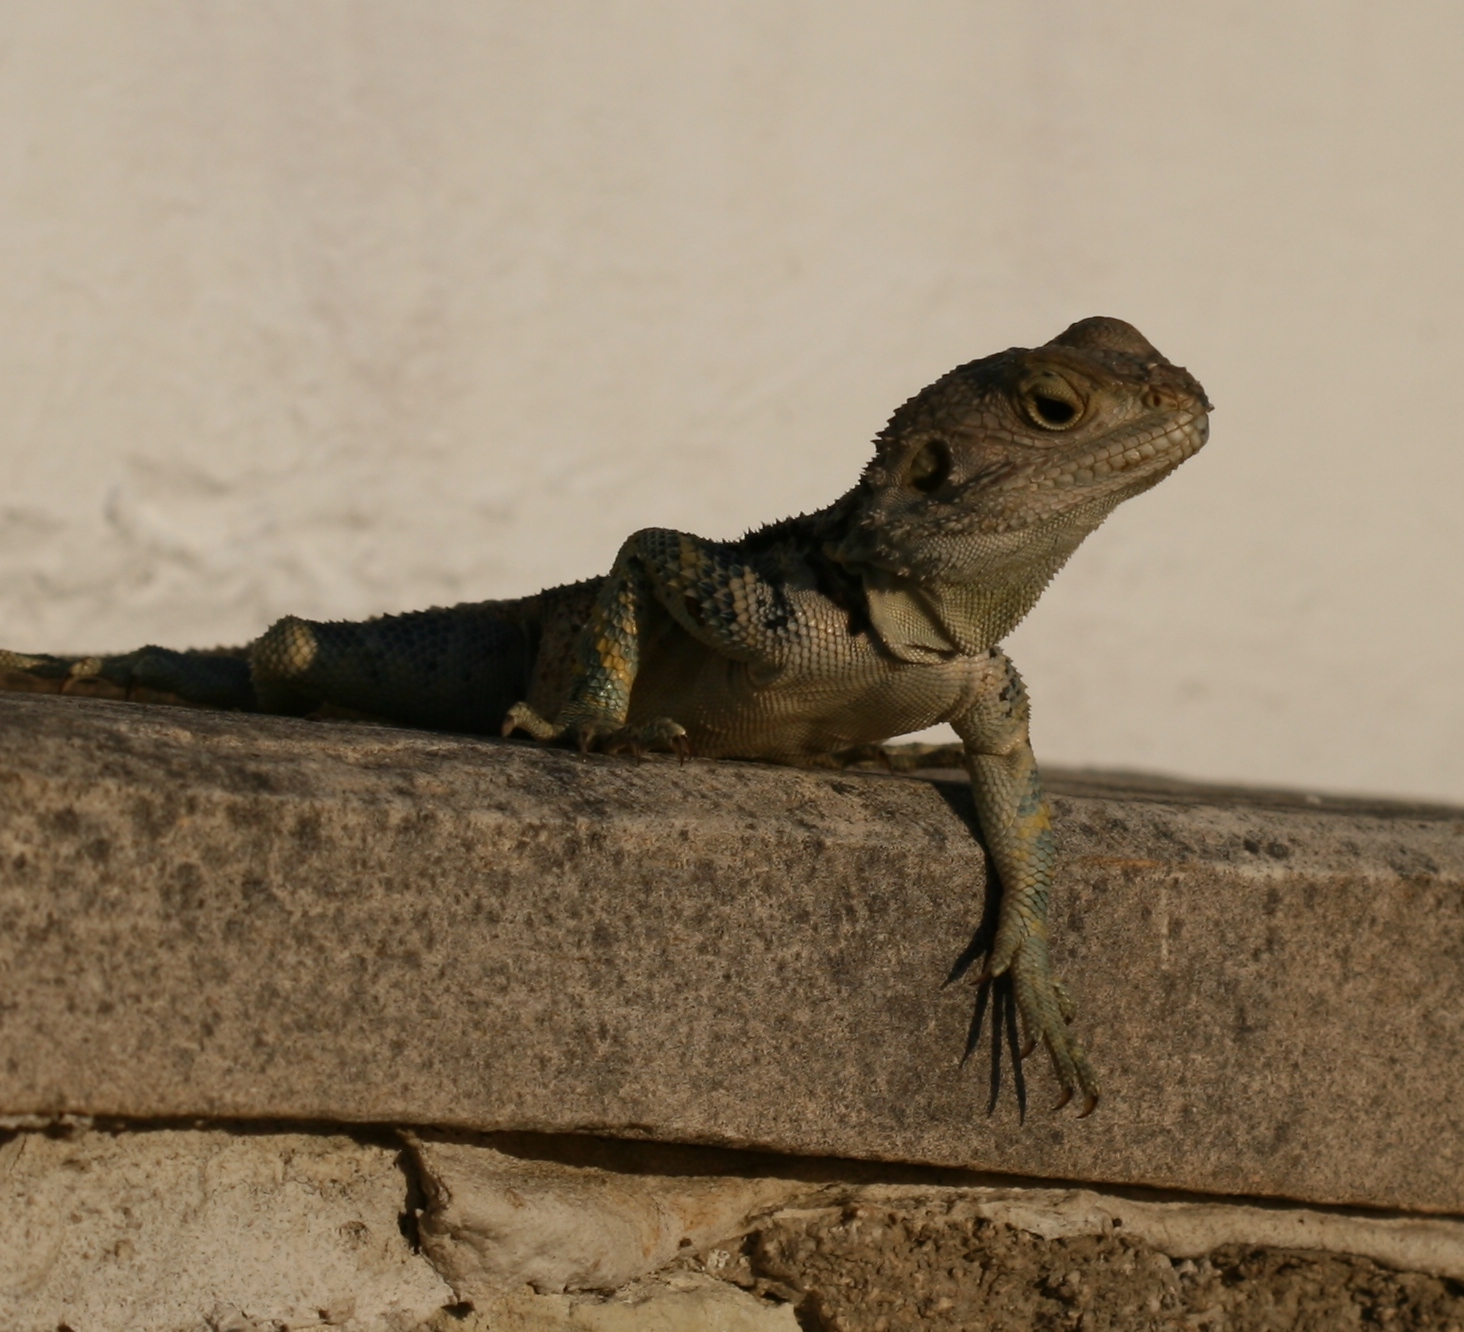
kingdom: Animalia
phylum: Chordata
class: Squamata
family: Agamidae
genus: Laudakia
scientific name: Laudakia
